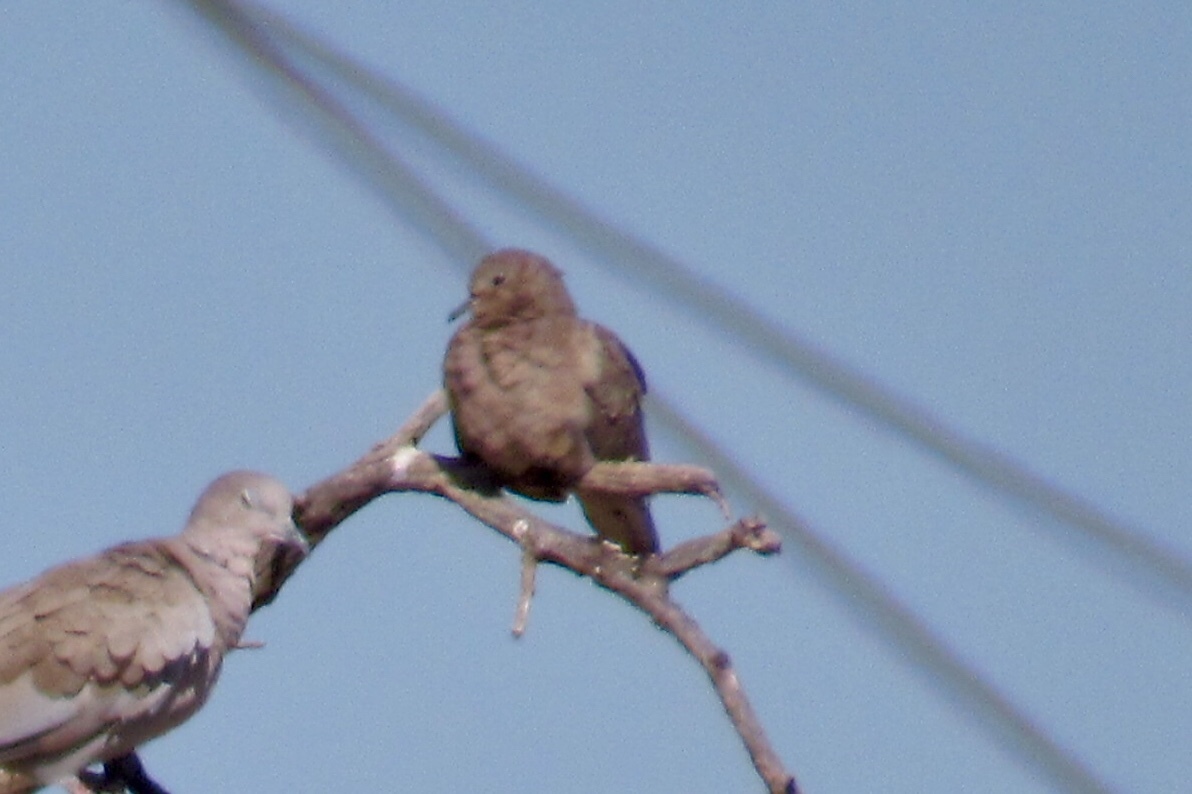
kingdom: Animalia
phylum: Chordata
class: Aves
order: Columbiformes
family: Columbidae
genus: Zenaida
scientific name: Zenaida macroura
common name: Mourning dove
